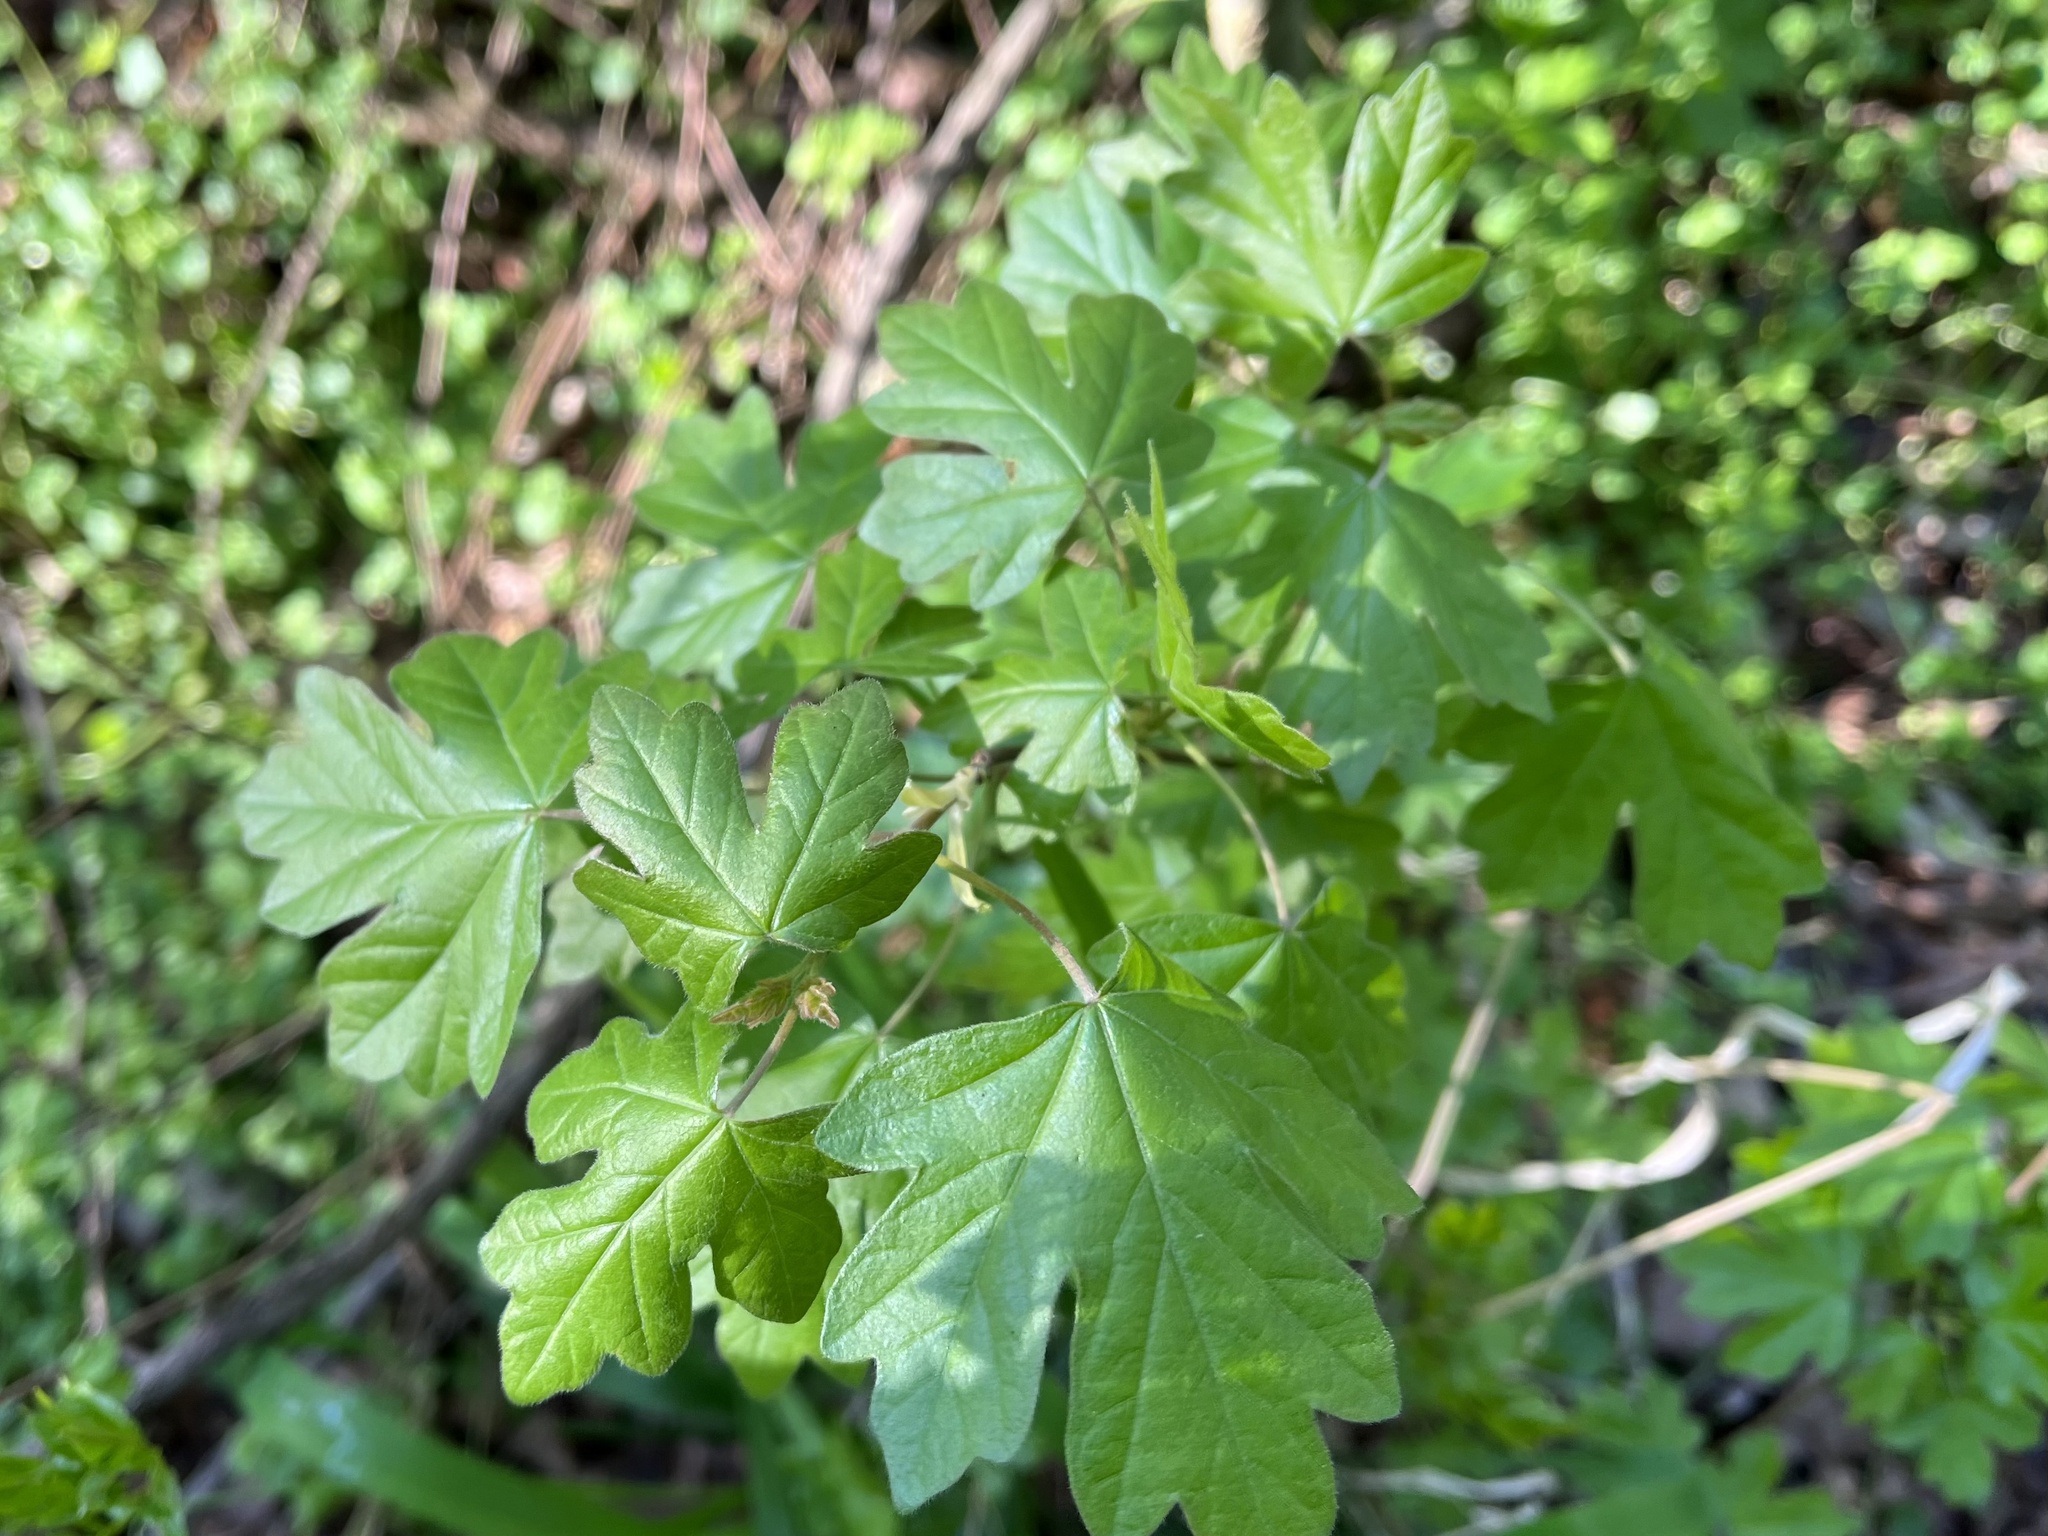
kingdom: Plantae
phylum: Tracheophyta
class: Magnoliopsida
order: Sapindales
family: Sapindaceae
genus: Acer
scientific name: Acer campestre
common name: Field maple
